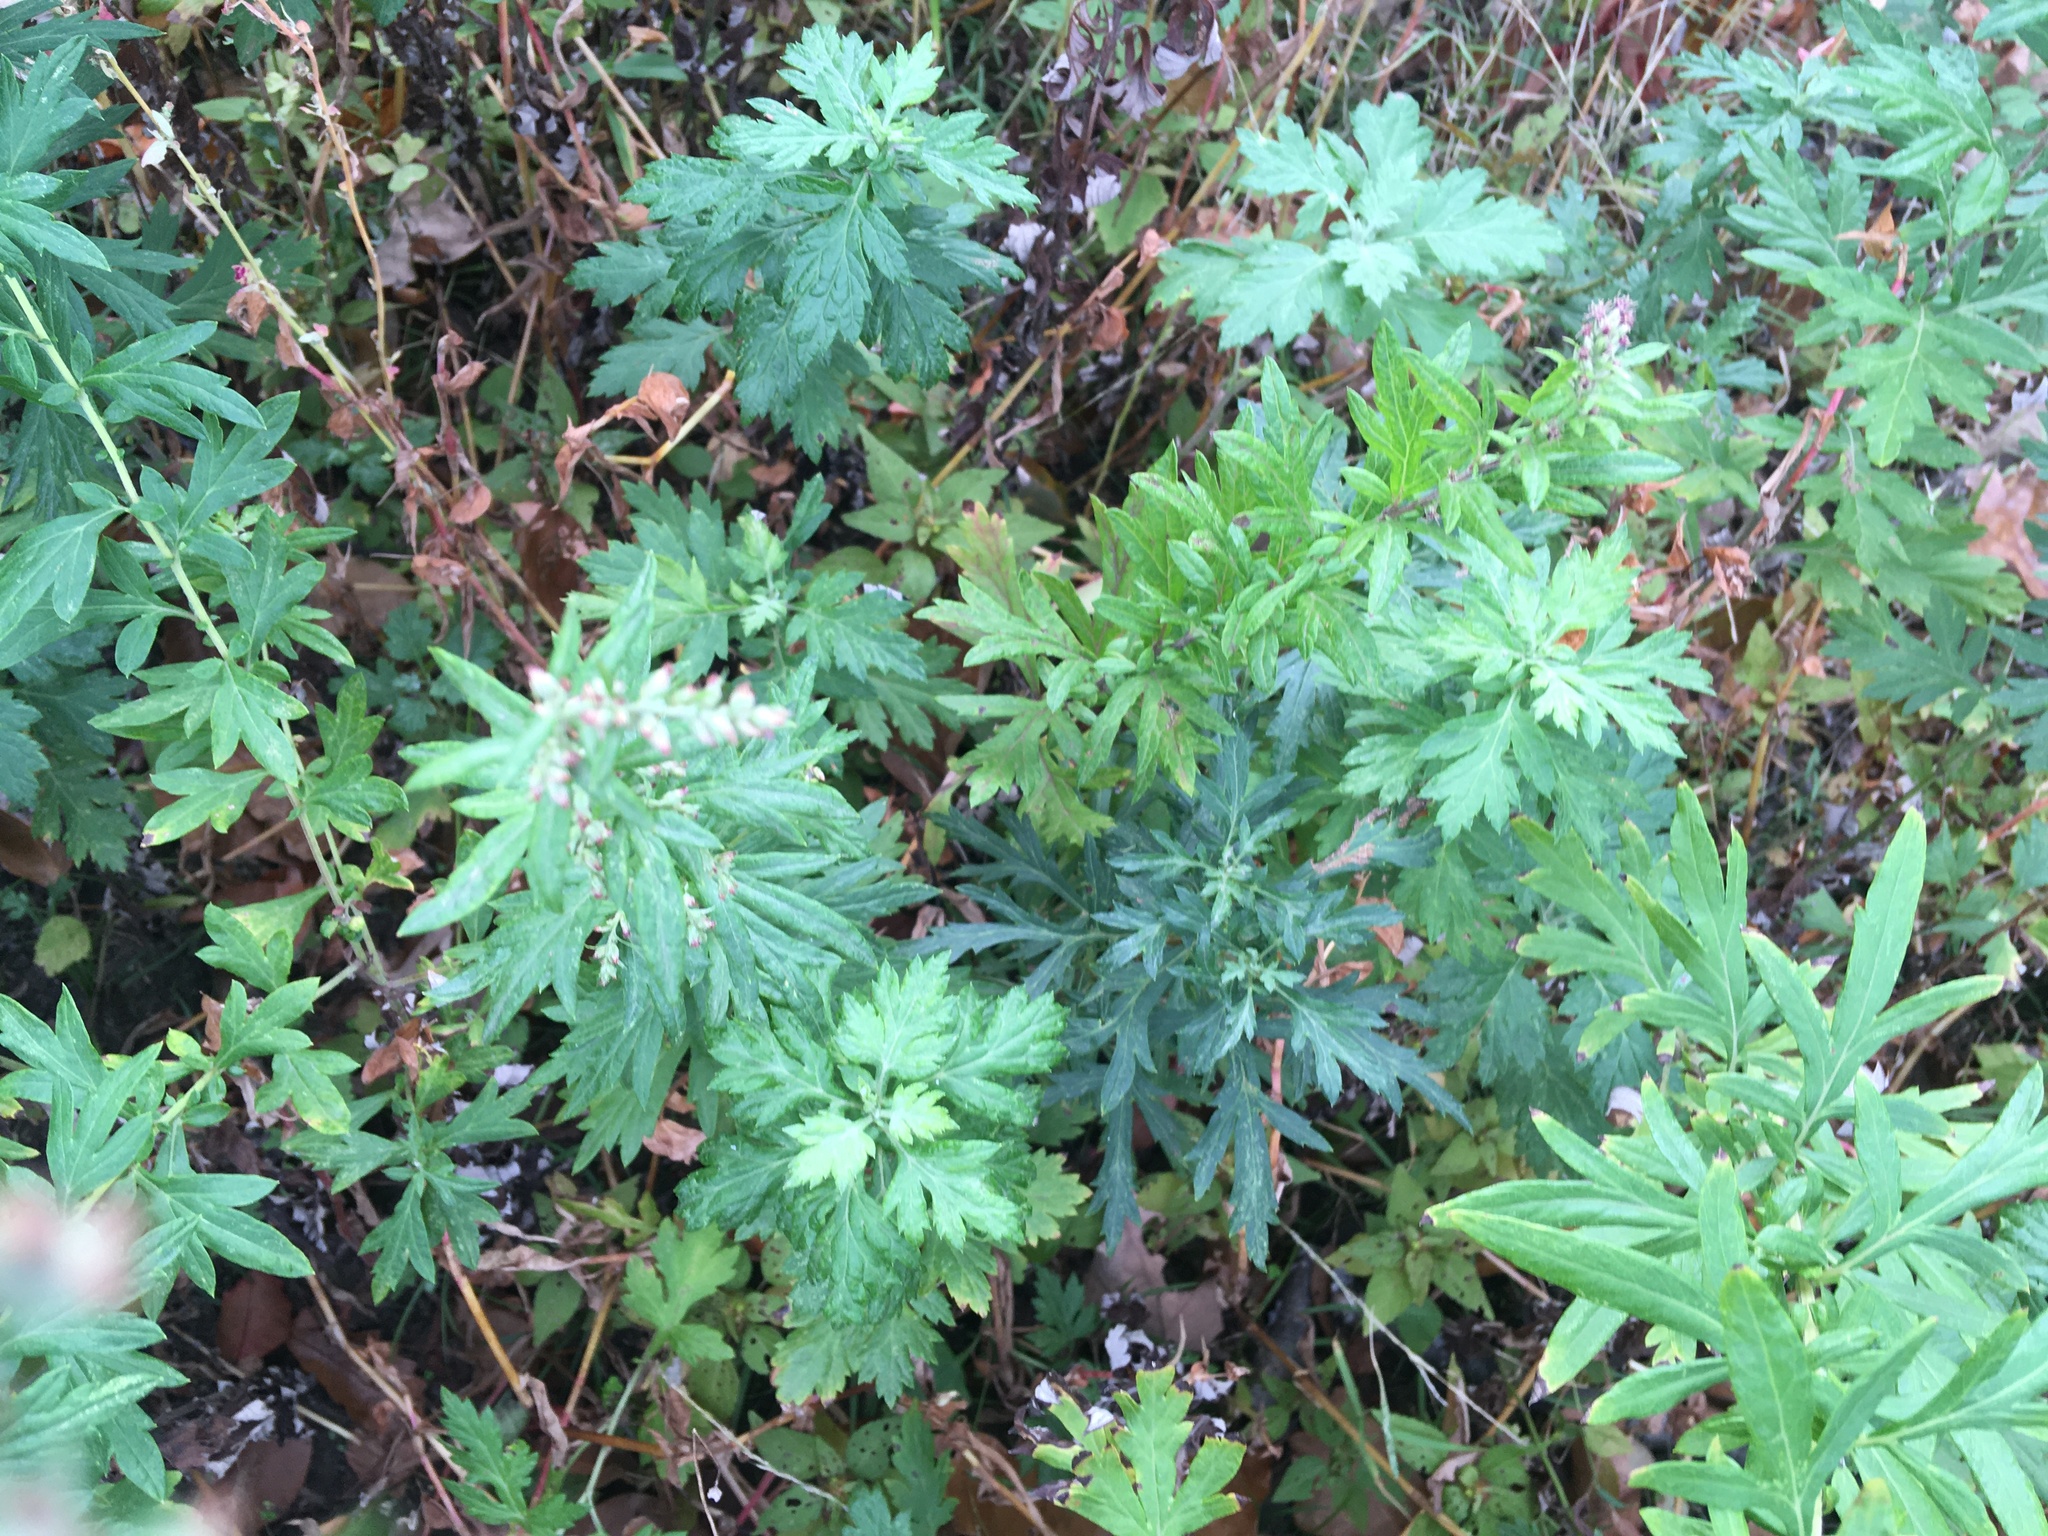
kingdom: Plantae
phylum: Tracheophyta
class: Magnoliopsida
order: Asterales
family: Asteraceae
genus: Artemisia
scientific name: Artemisia vulgaris
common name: Mugwort
